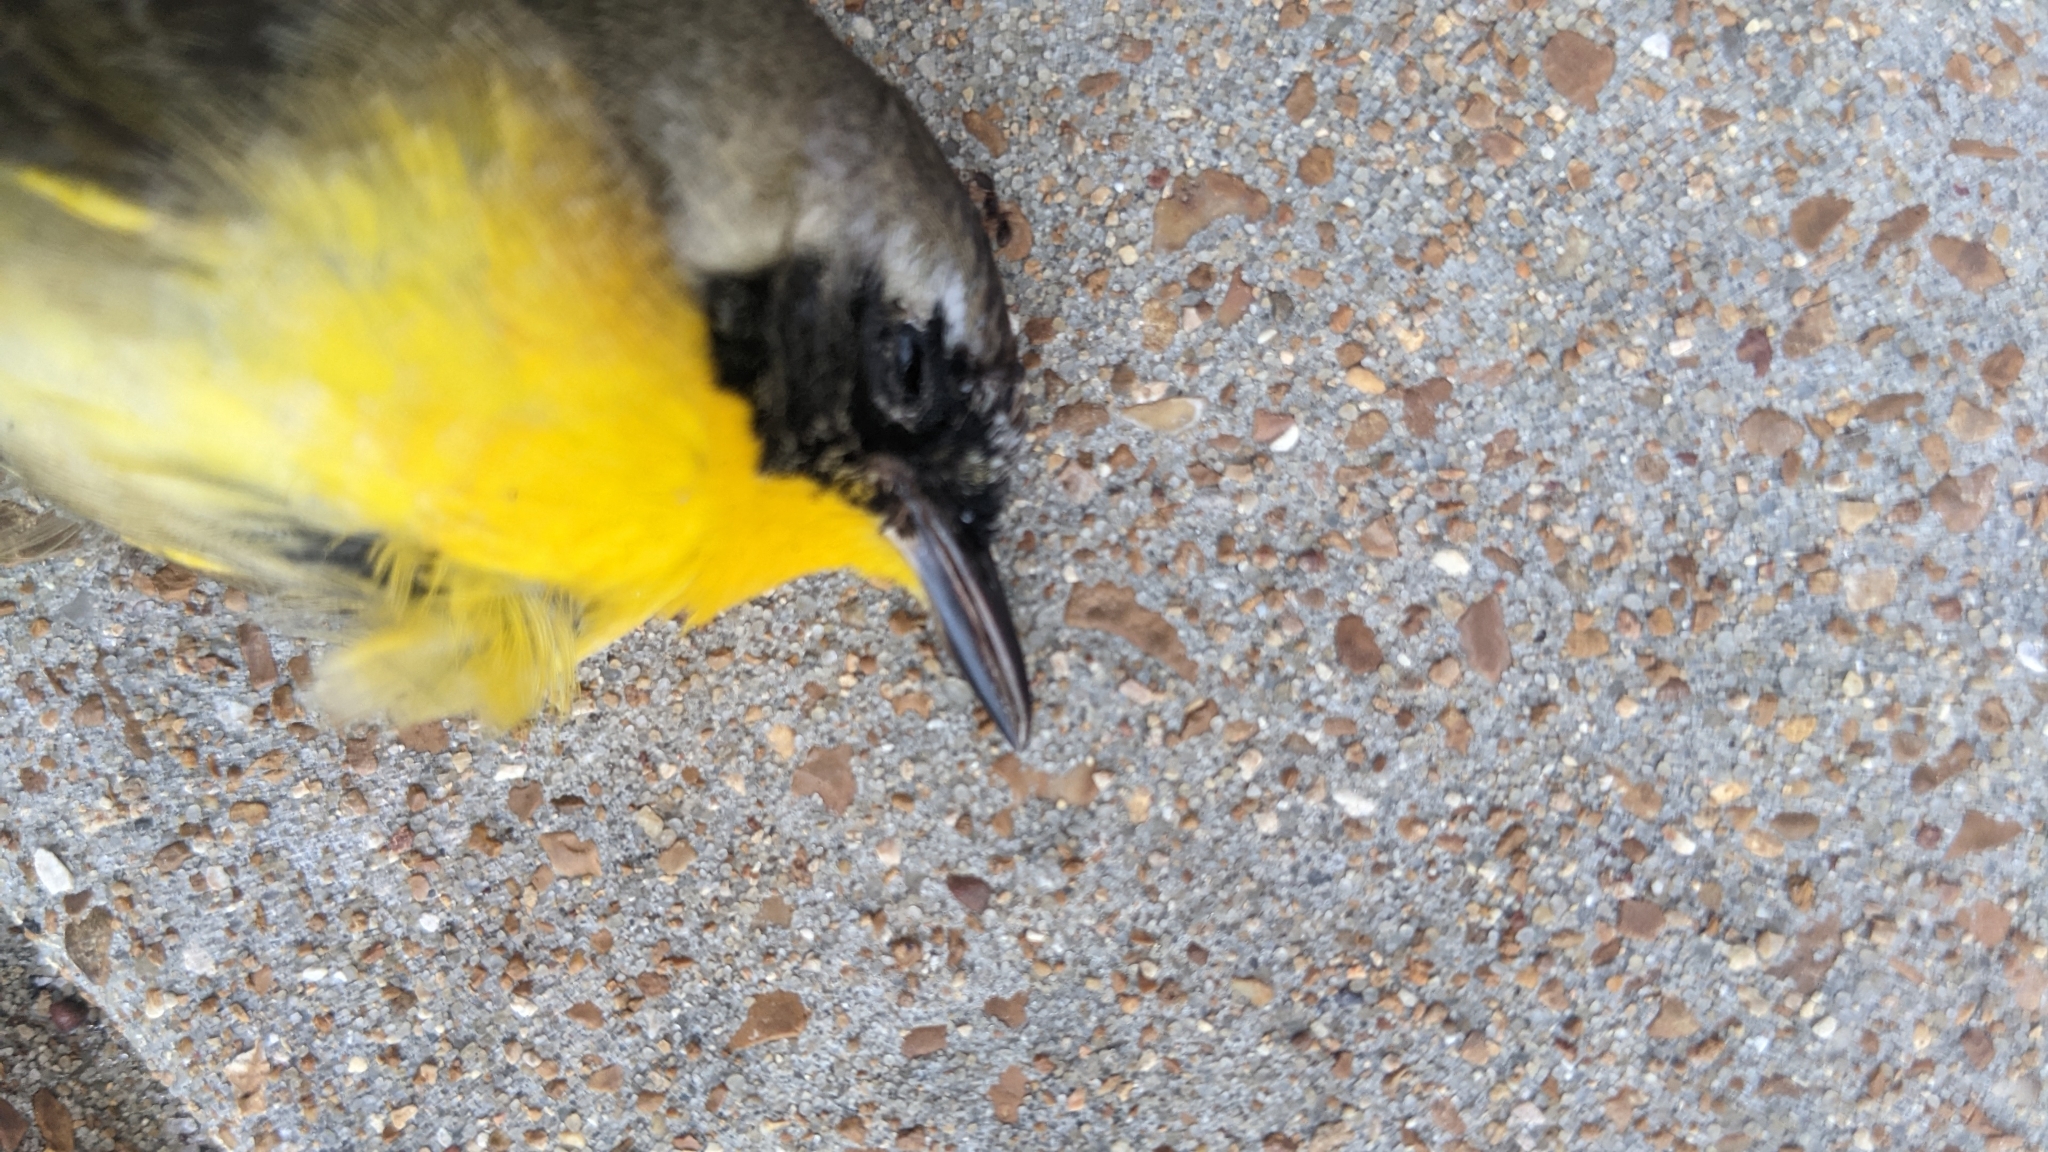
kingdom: Animalia
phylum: Chordata
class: Aves
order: Passeriformes
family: Parulidae
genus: Geothlypis
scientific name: Geothlypis trichas
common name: Common yellowthroat
